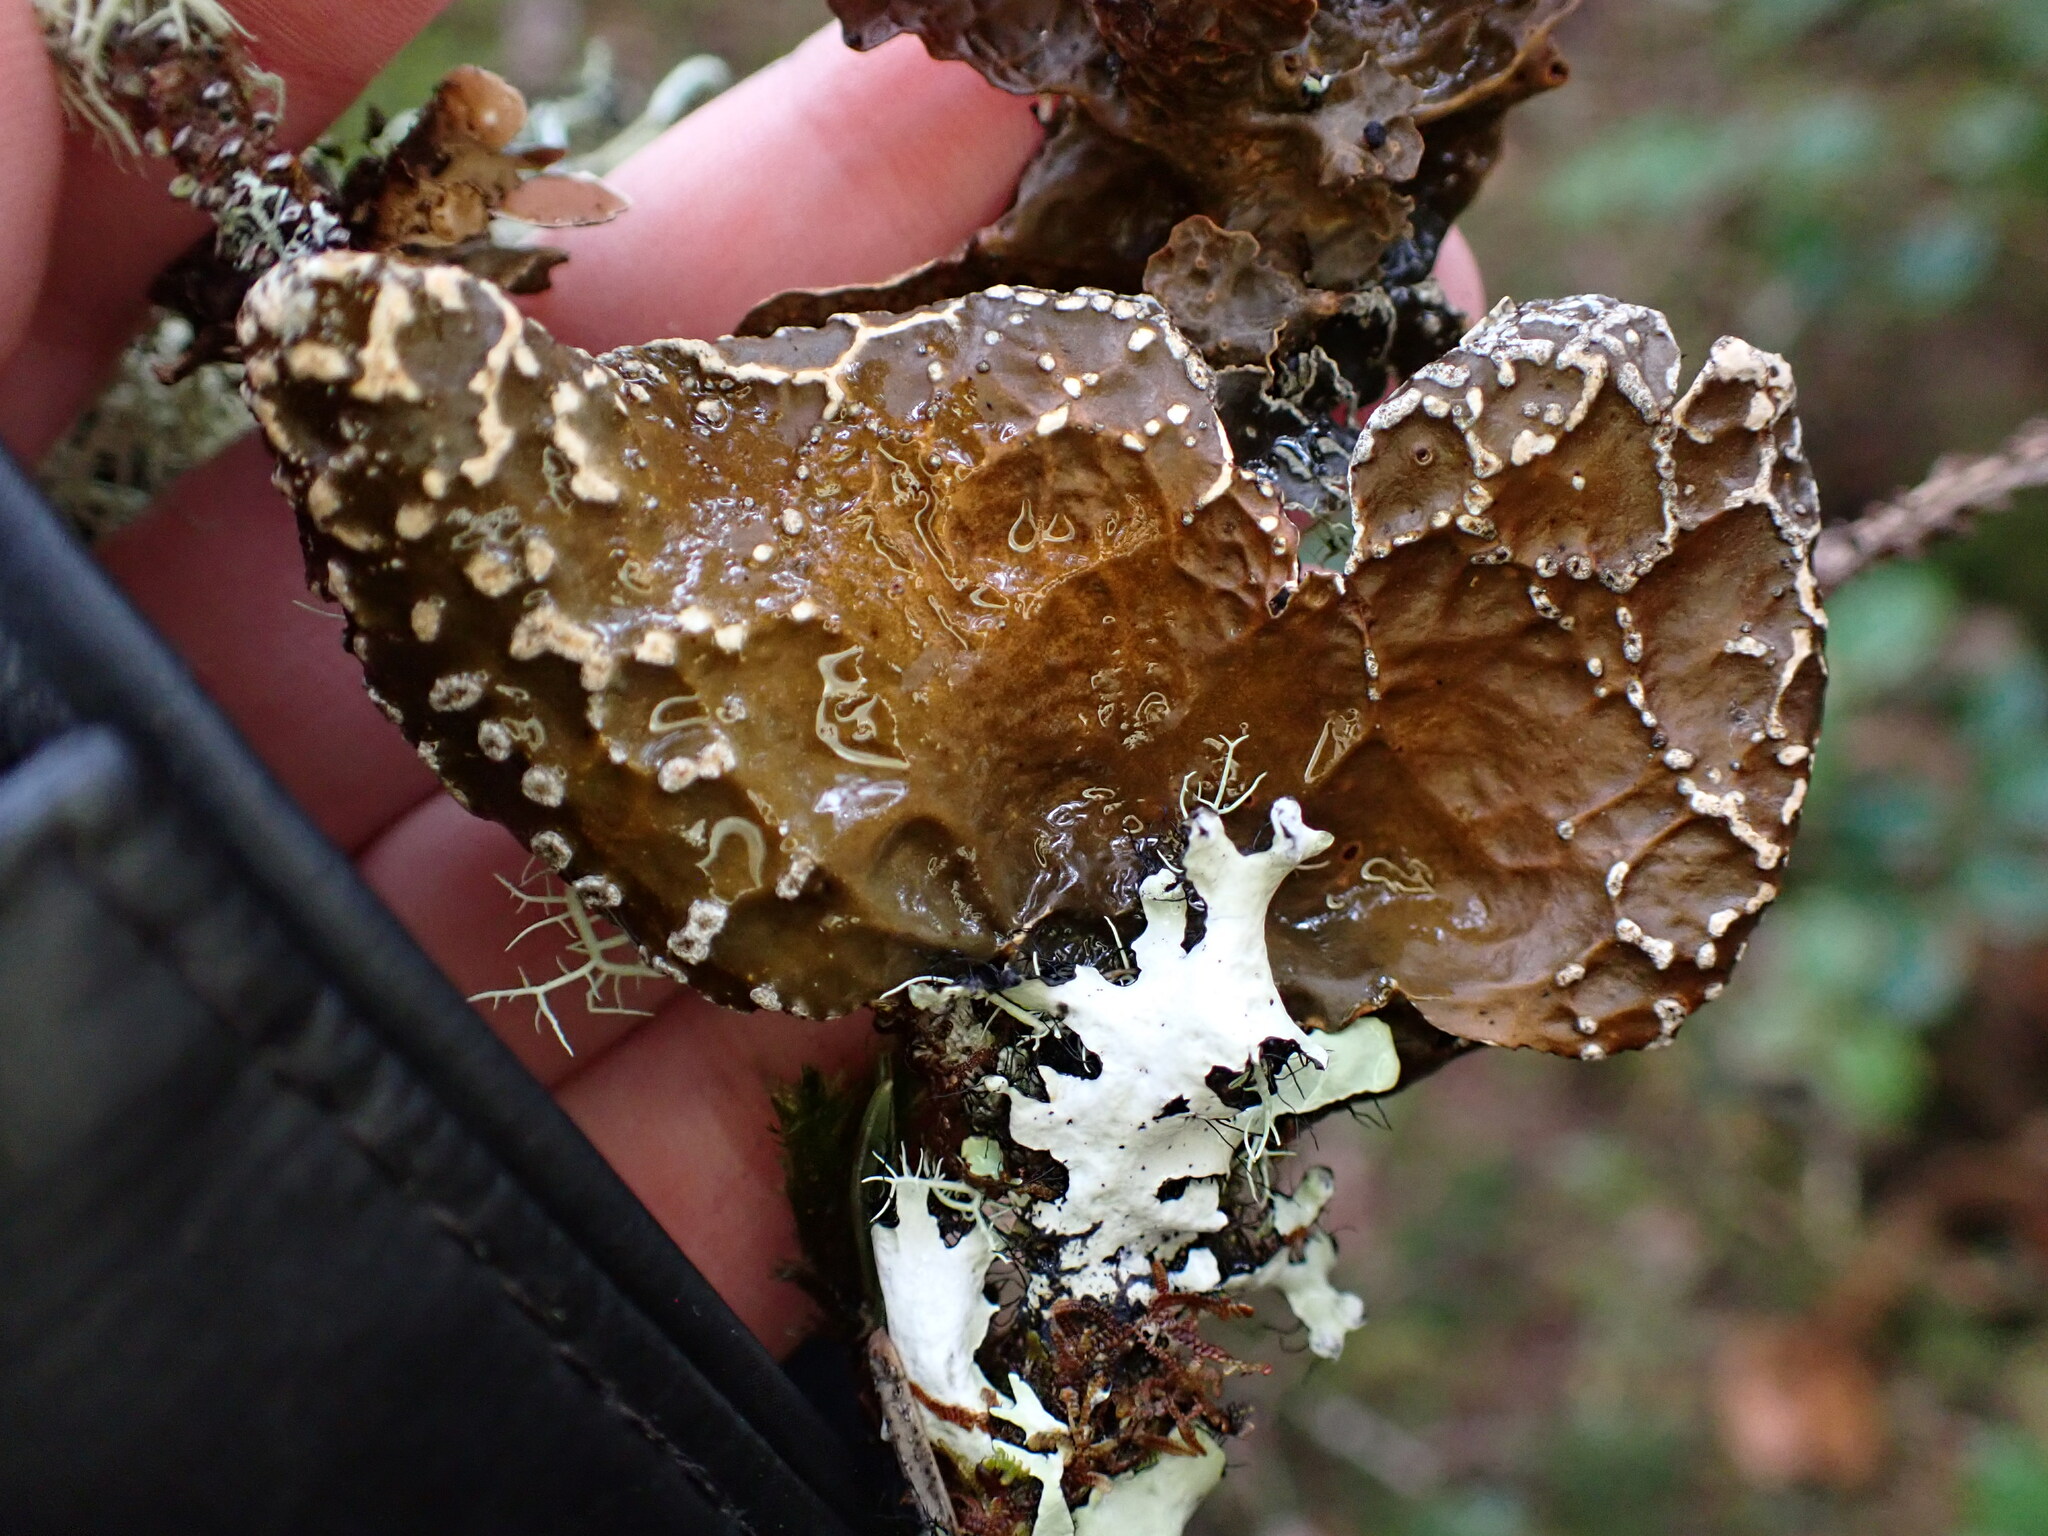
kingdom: Fungi
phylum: Ascomycota
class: Lecanoromycetes
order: Peltigerales
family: Lobariaceae
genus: Lobaria
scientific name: Lobaria anomala
